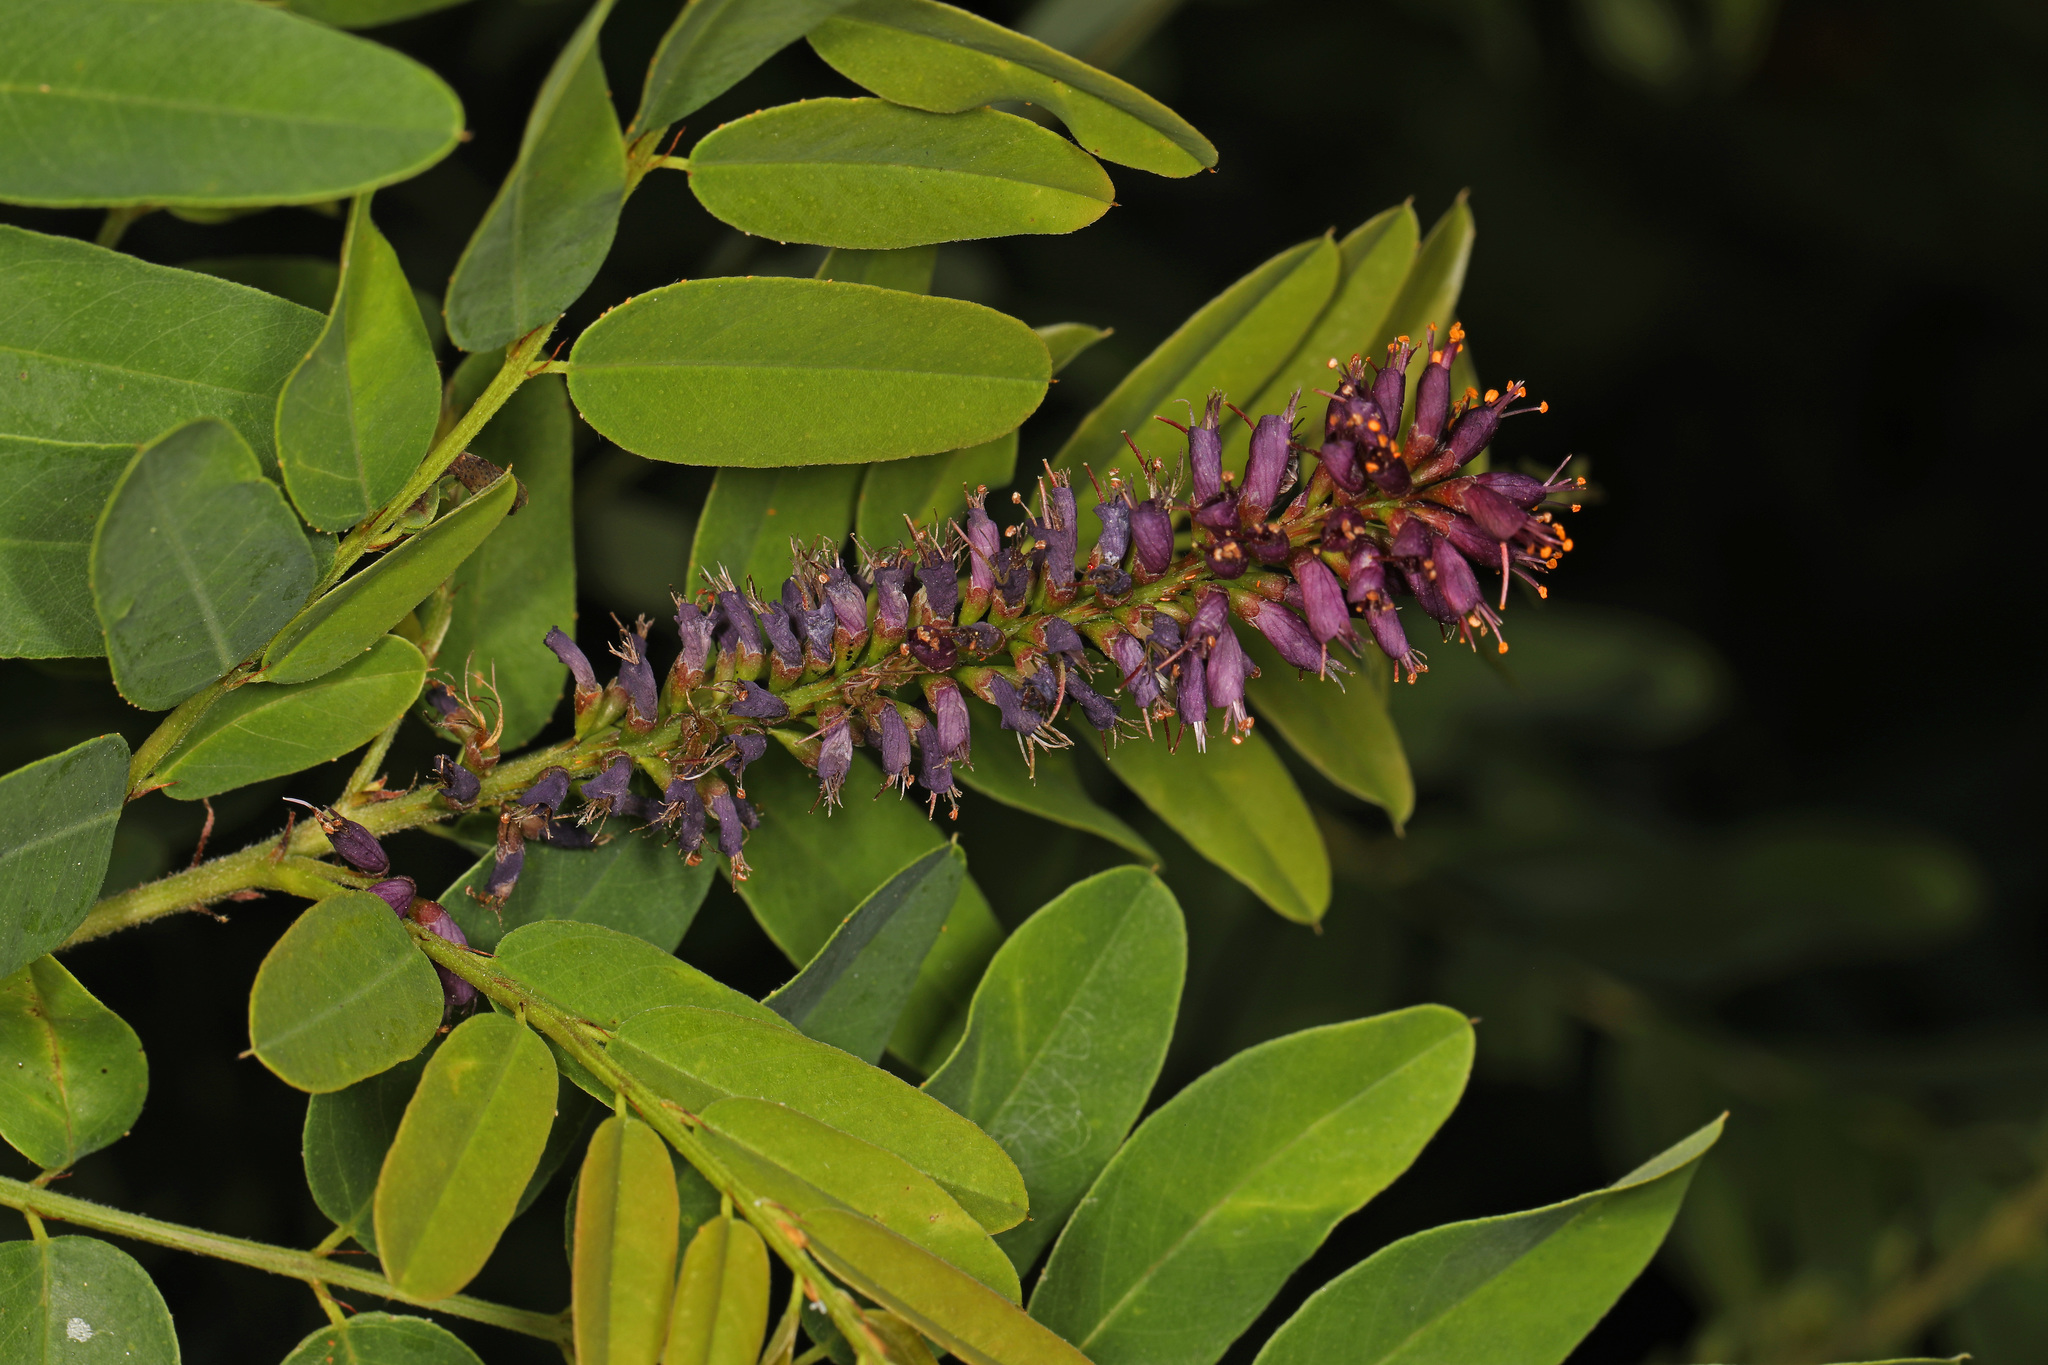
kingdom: Plantae
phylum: Tracheophyta
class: Magnoliopsida
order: Fabales
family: Fabaceae
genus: Amorpha
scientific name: Amorpha fruticosa
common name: False indigo
